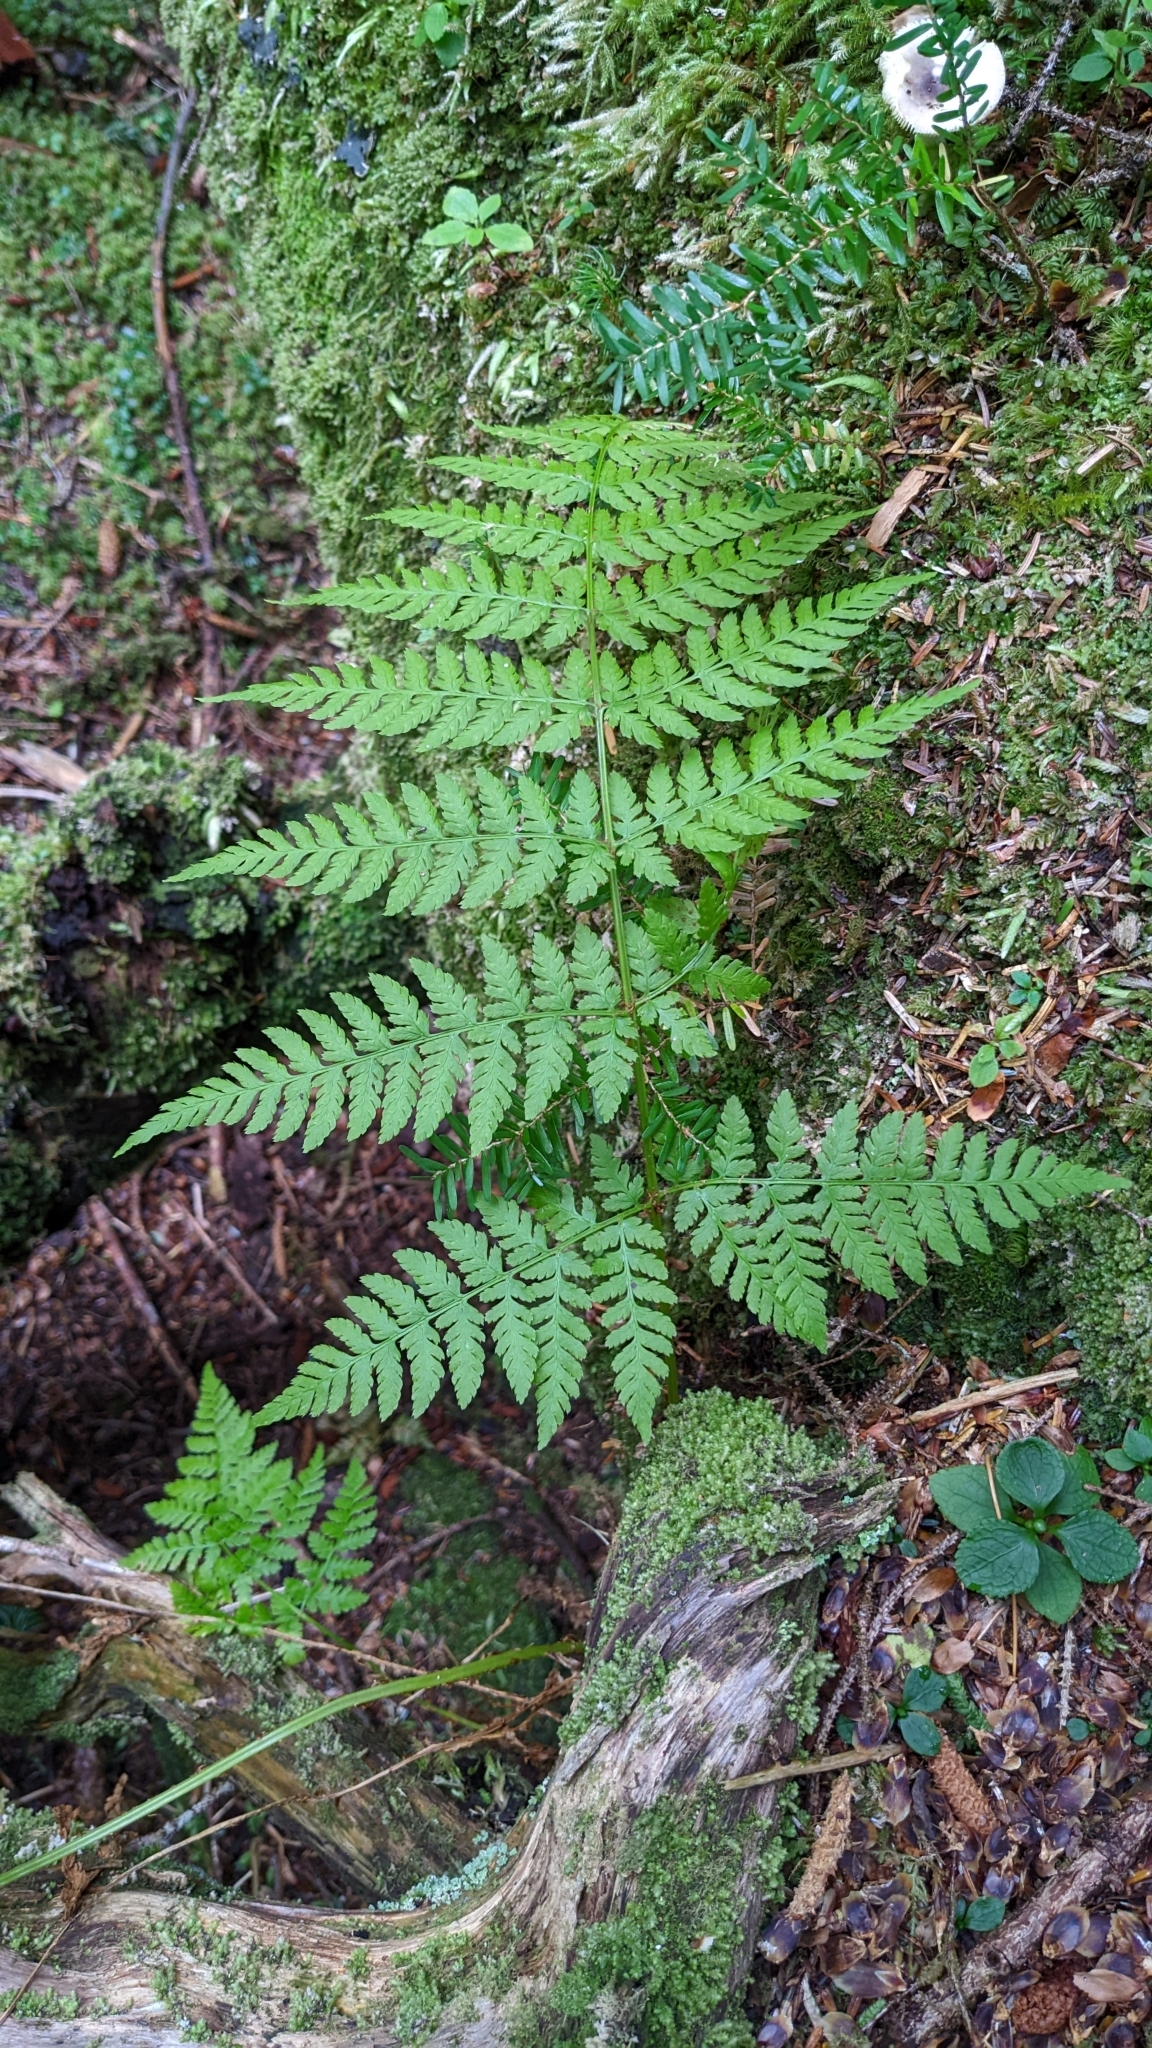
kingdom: Plantae
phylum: Tracheophyta
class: Polypodiopsida
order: Polypodiales
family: Dryopteridaceae
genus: Dryopteris
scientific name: Dryopteris expansa
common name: Northern buckler fern
